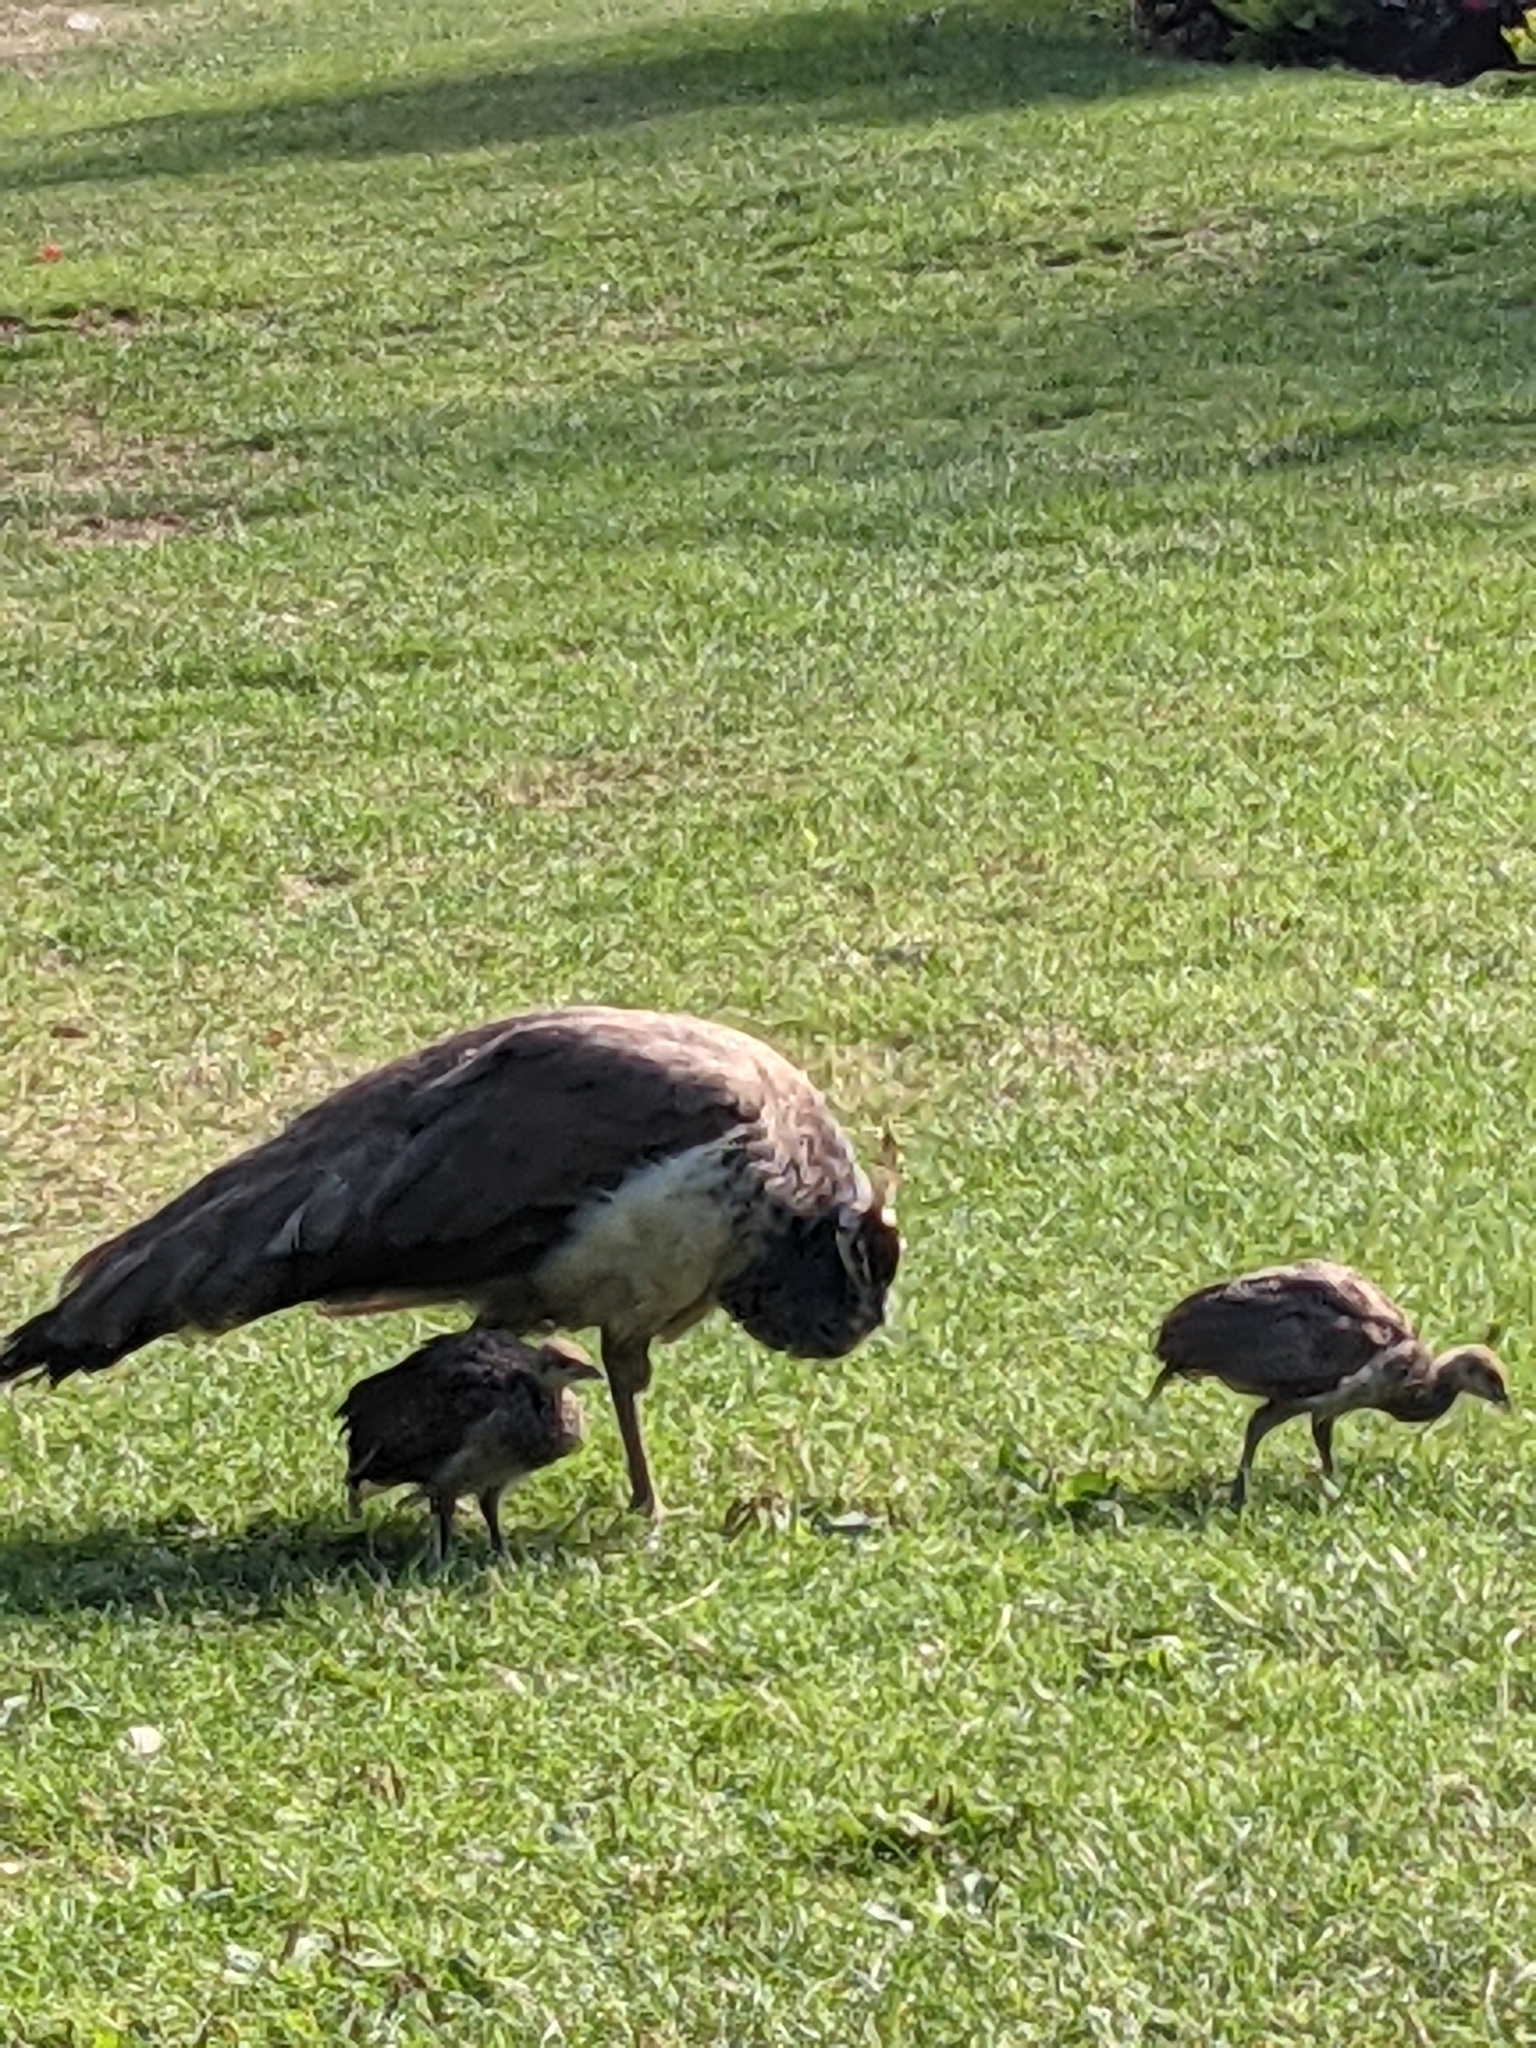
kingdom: Animalia
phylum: Chordata
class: Aves
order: Galliformes
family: Phasianidae
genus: Pavo
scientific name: Pavo cristatus
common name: Indian peafowl
